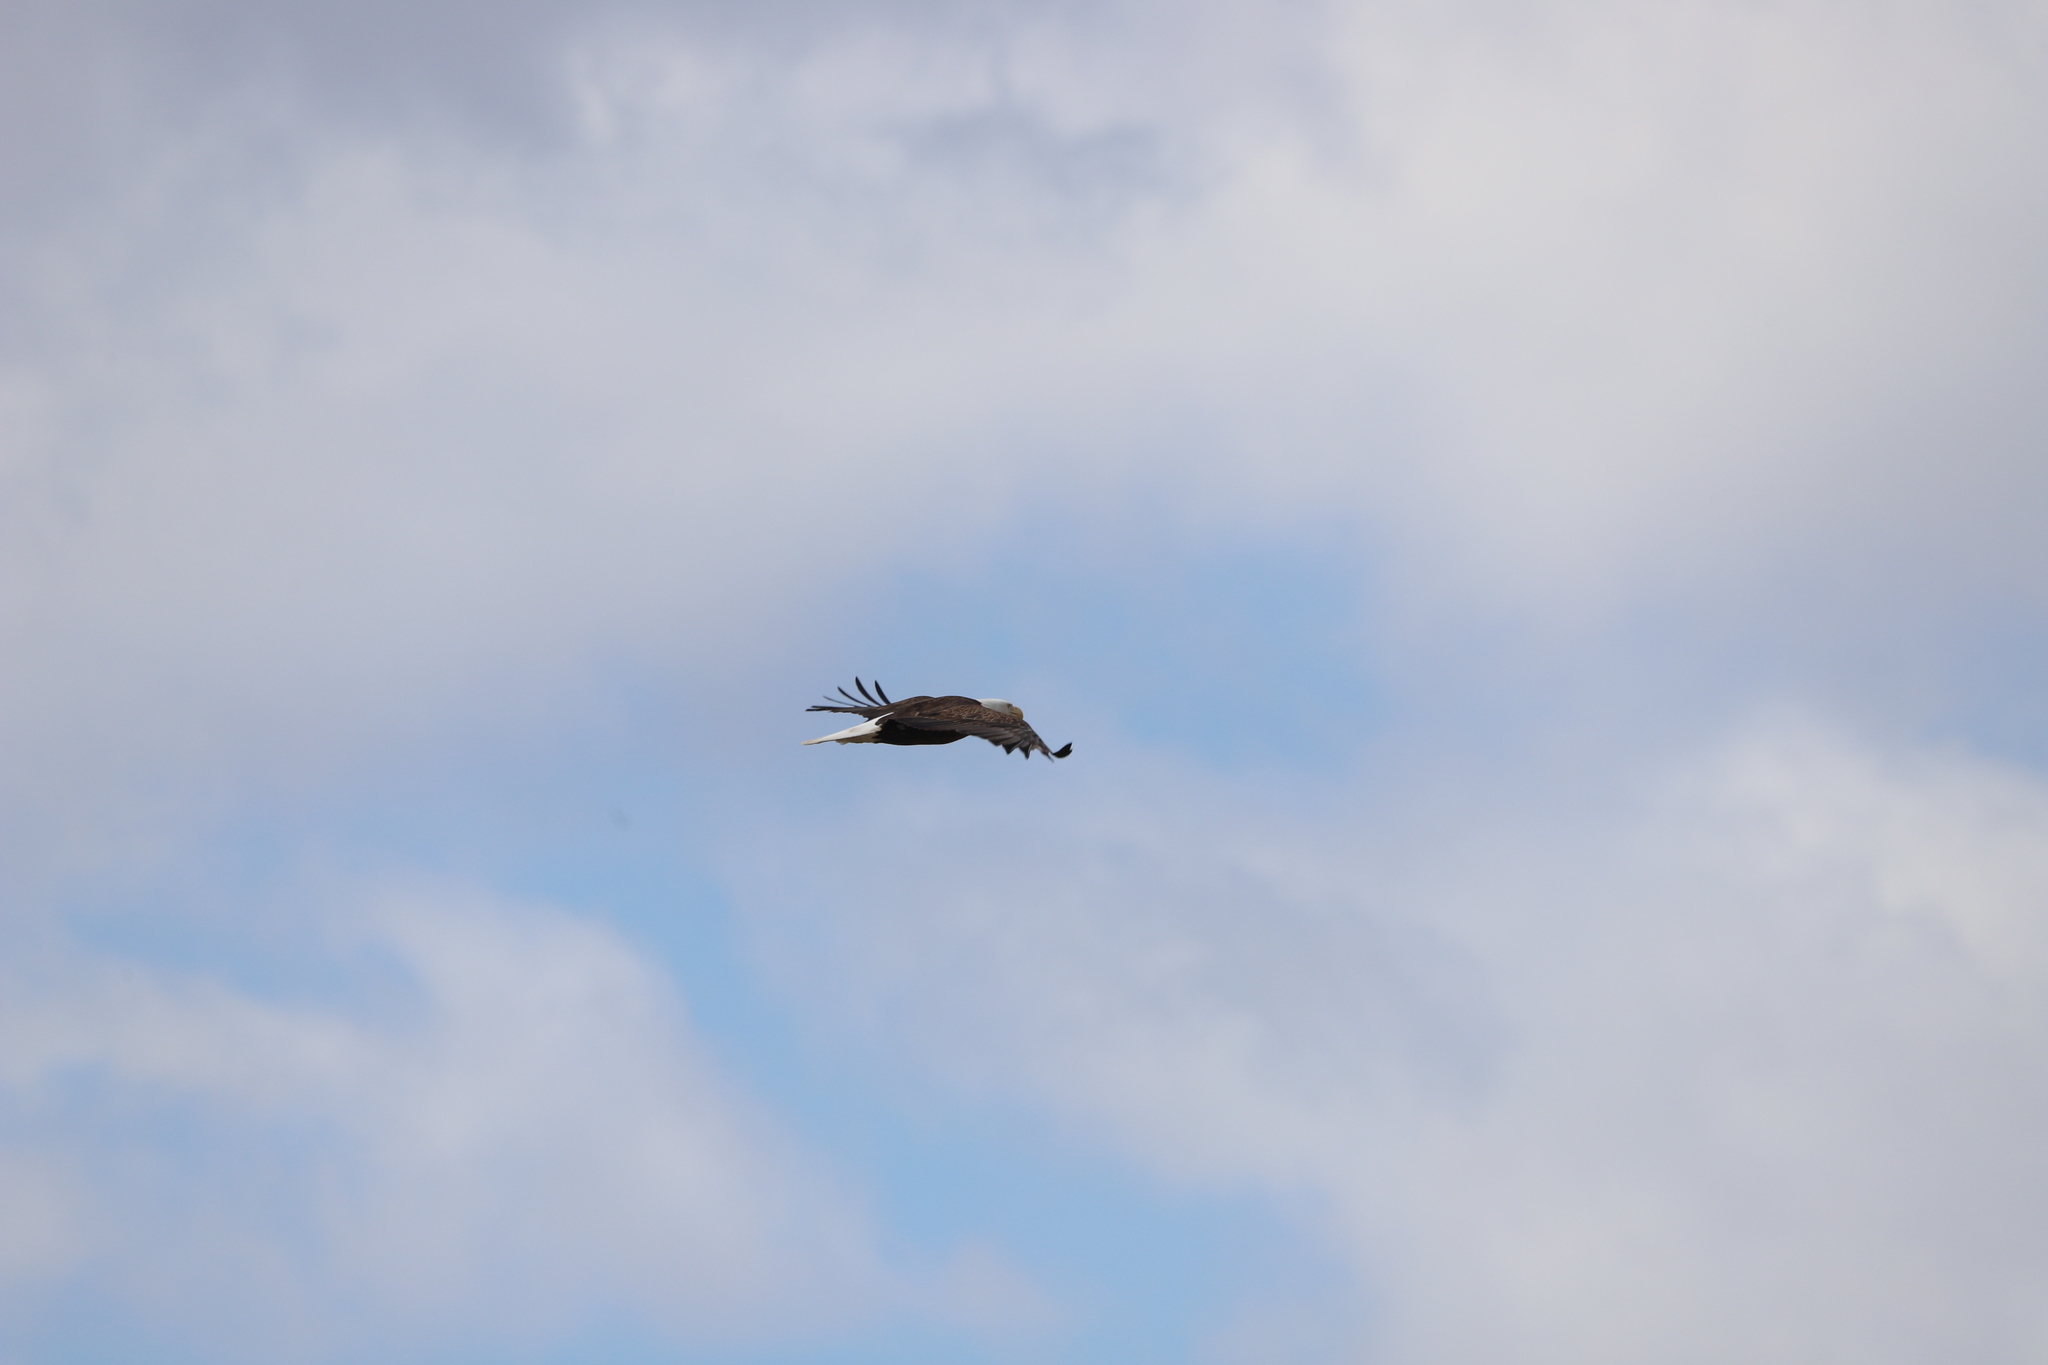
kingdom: Animalia
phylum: Chordata
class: Aves
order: Accipitriformes
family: Accipitridae
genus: Haliaeetus
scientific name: Haliaeetus leucocephalus
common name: Bald eagle
